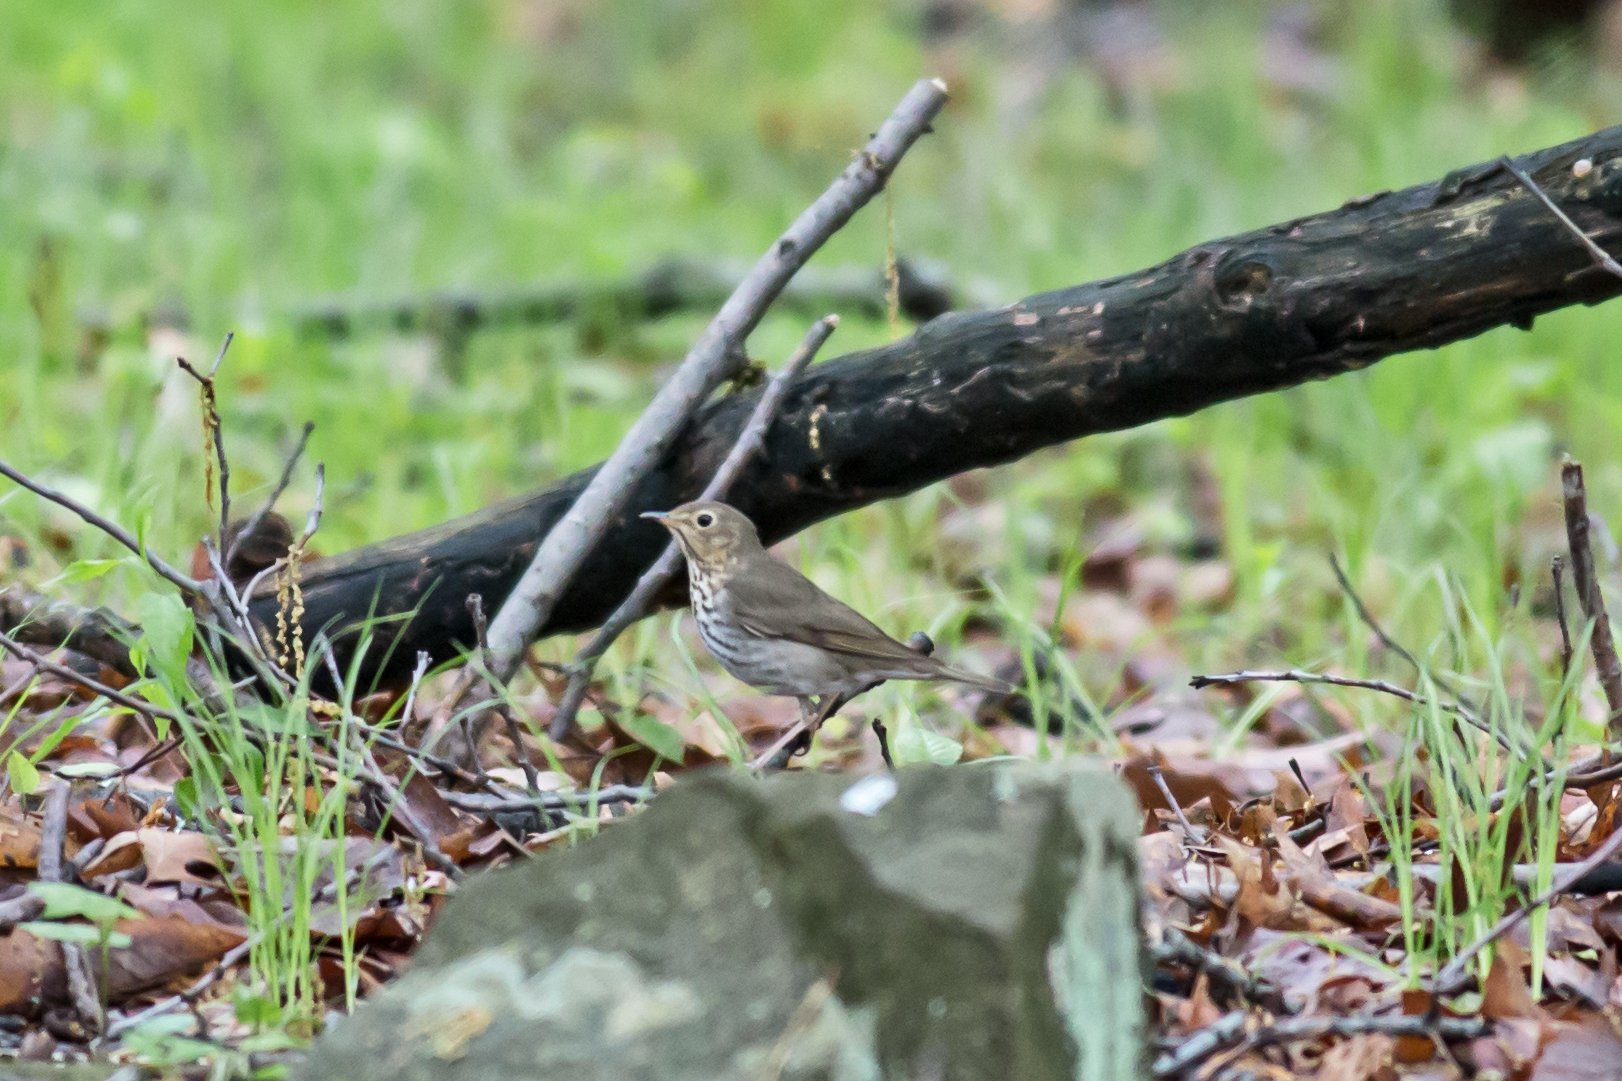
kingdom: Animalia
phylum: Chordata
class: Aves
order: Passeriformes
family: Turdidae
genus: Catharus
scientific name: Catharus ustulatus
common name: Swainson's thrush
